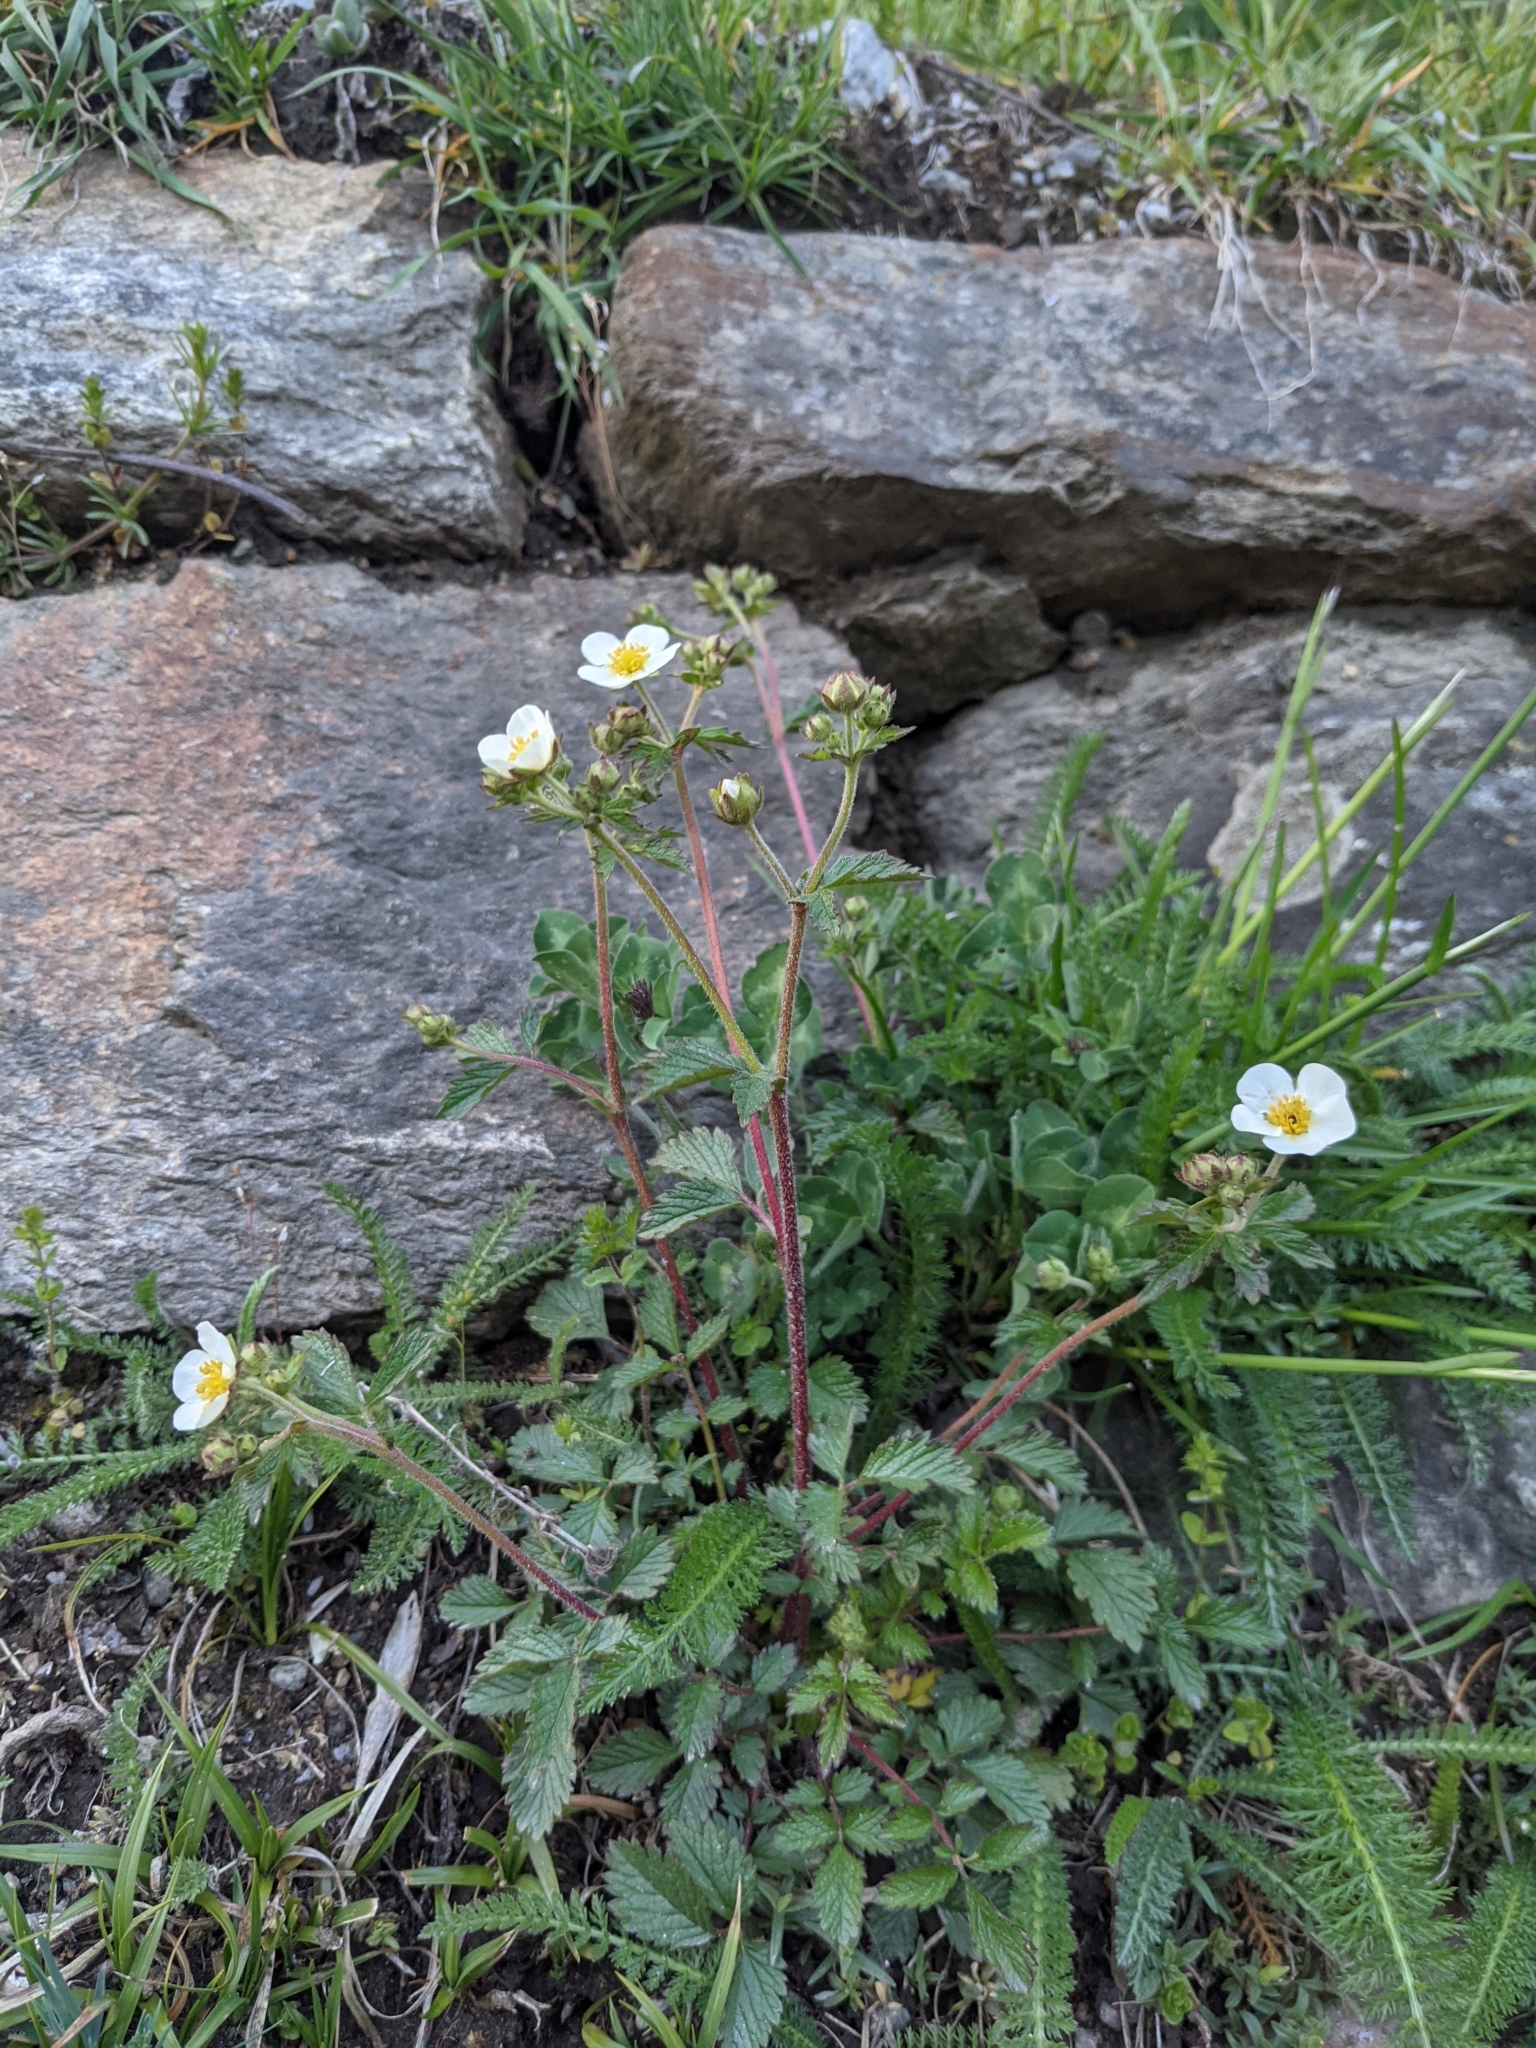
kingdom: Plantae
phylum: Tracheophyta
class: Magnoliopsida
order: Rosales
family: Rosaceae
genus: Drymocallis
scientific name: Drymocallis rupestris
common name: Rock cinquefoil
